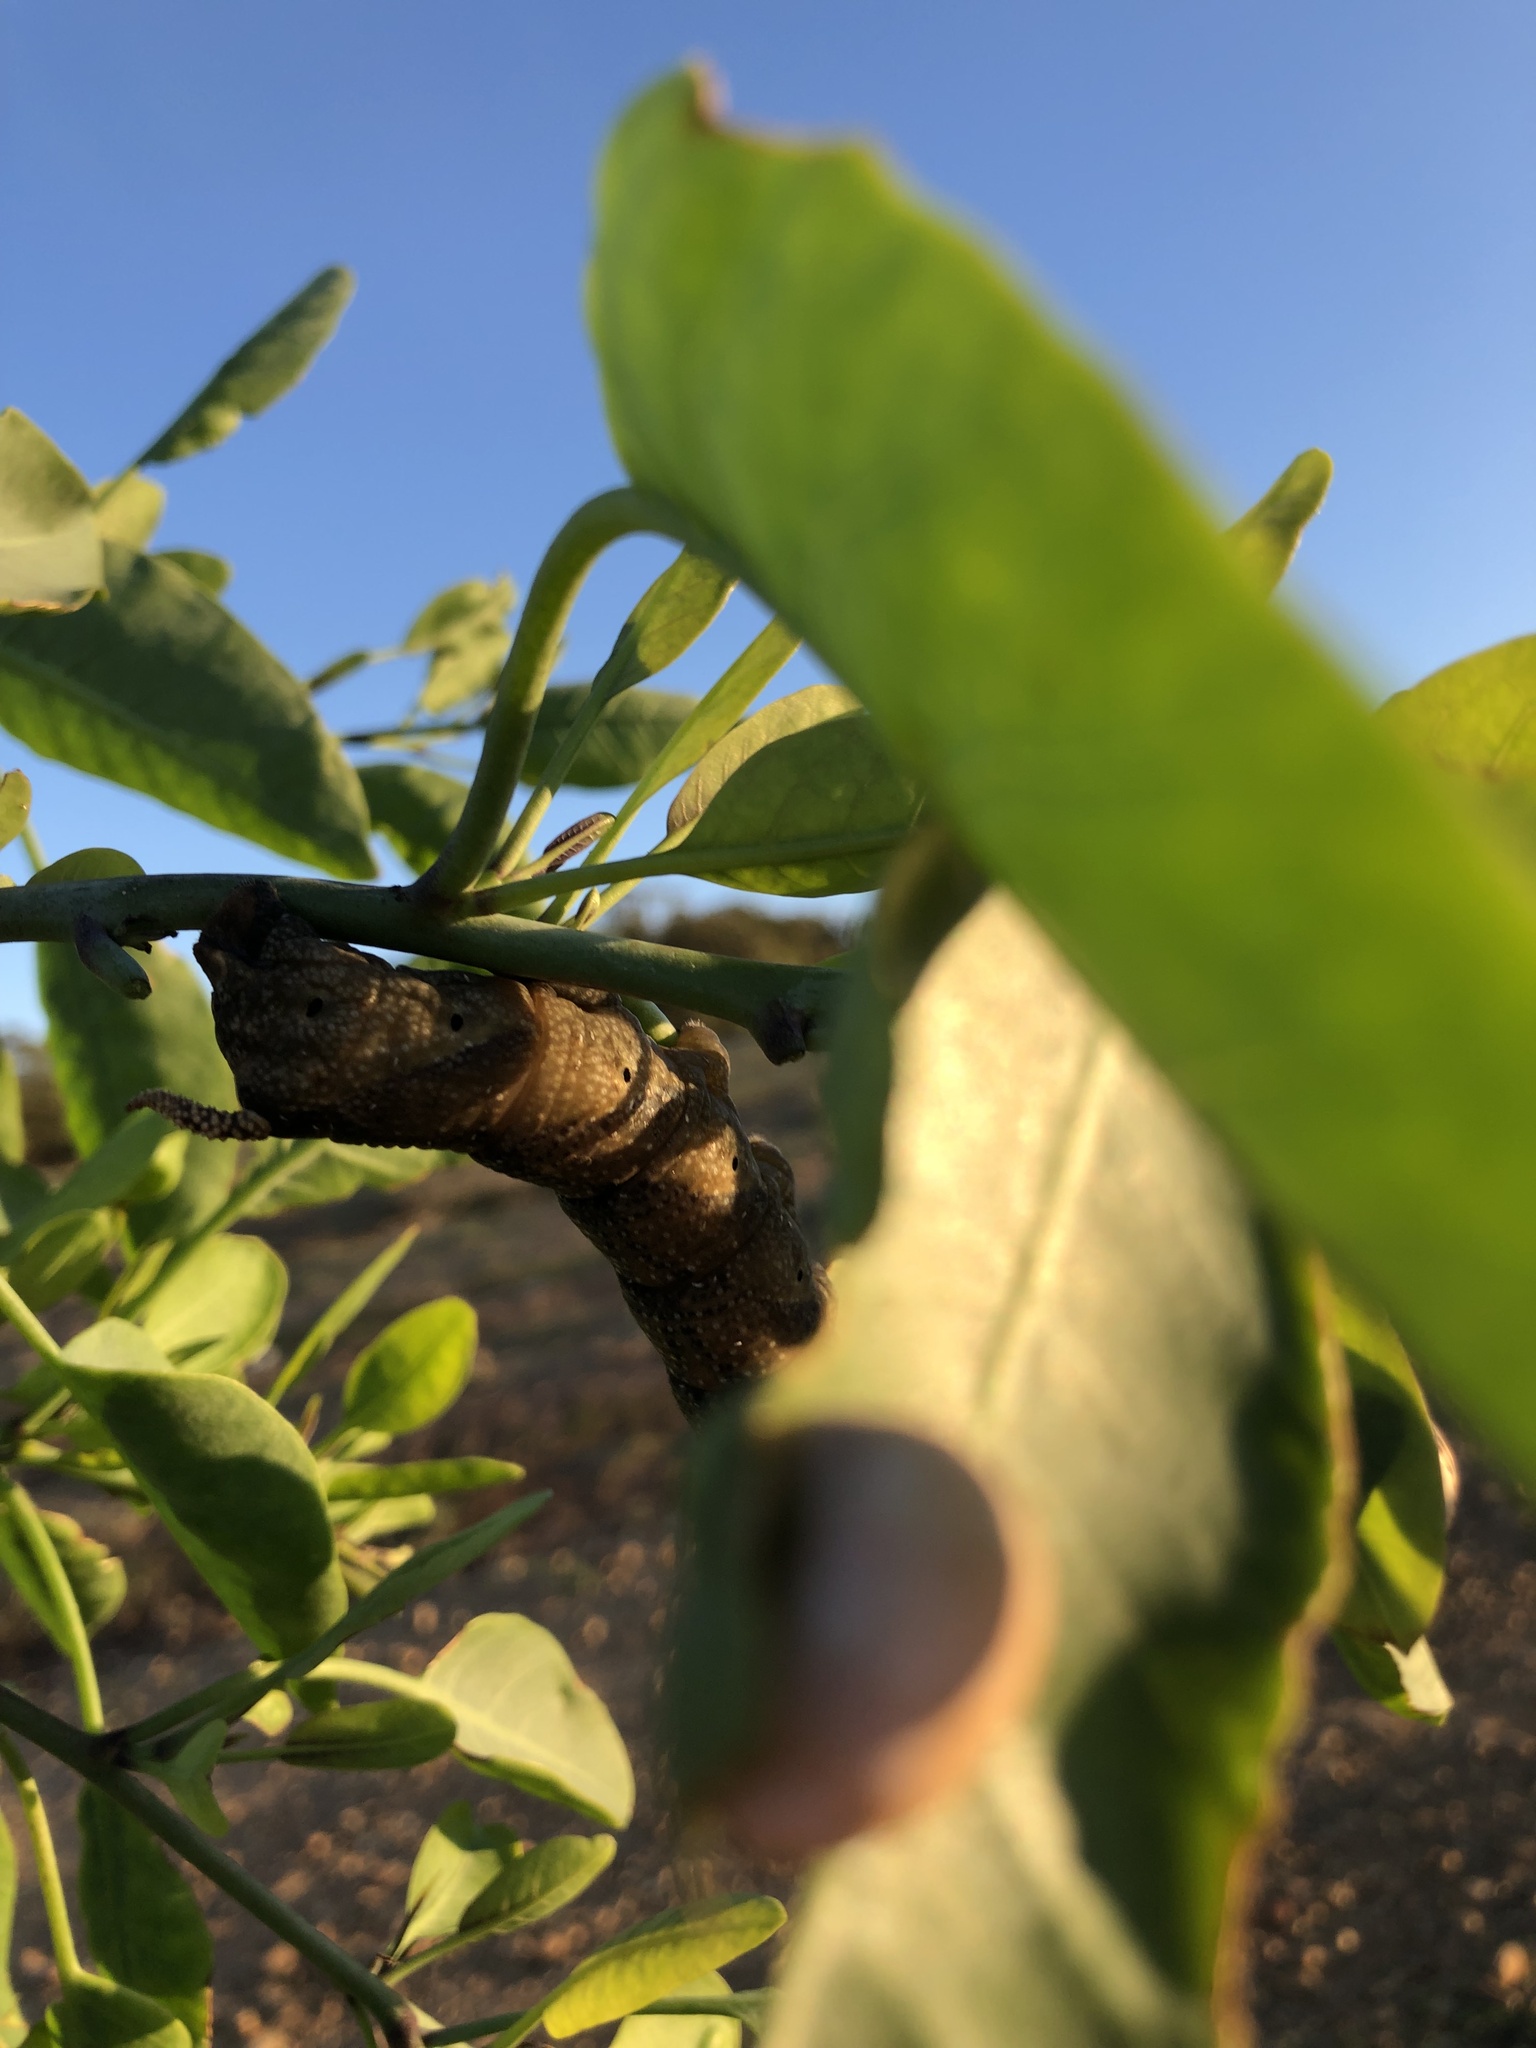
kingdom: Animalia
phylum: Arthropoda
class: Insecta
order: Lepidoptera
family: Sphingidae
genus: Acherontia
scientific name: Acherontia atropos
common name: Death's-head hawk moth
